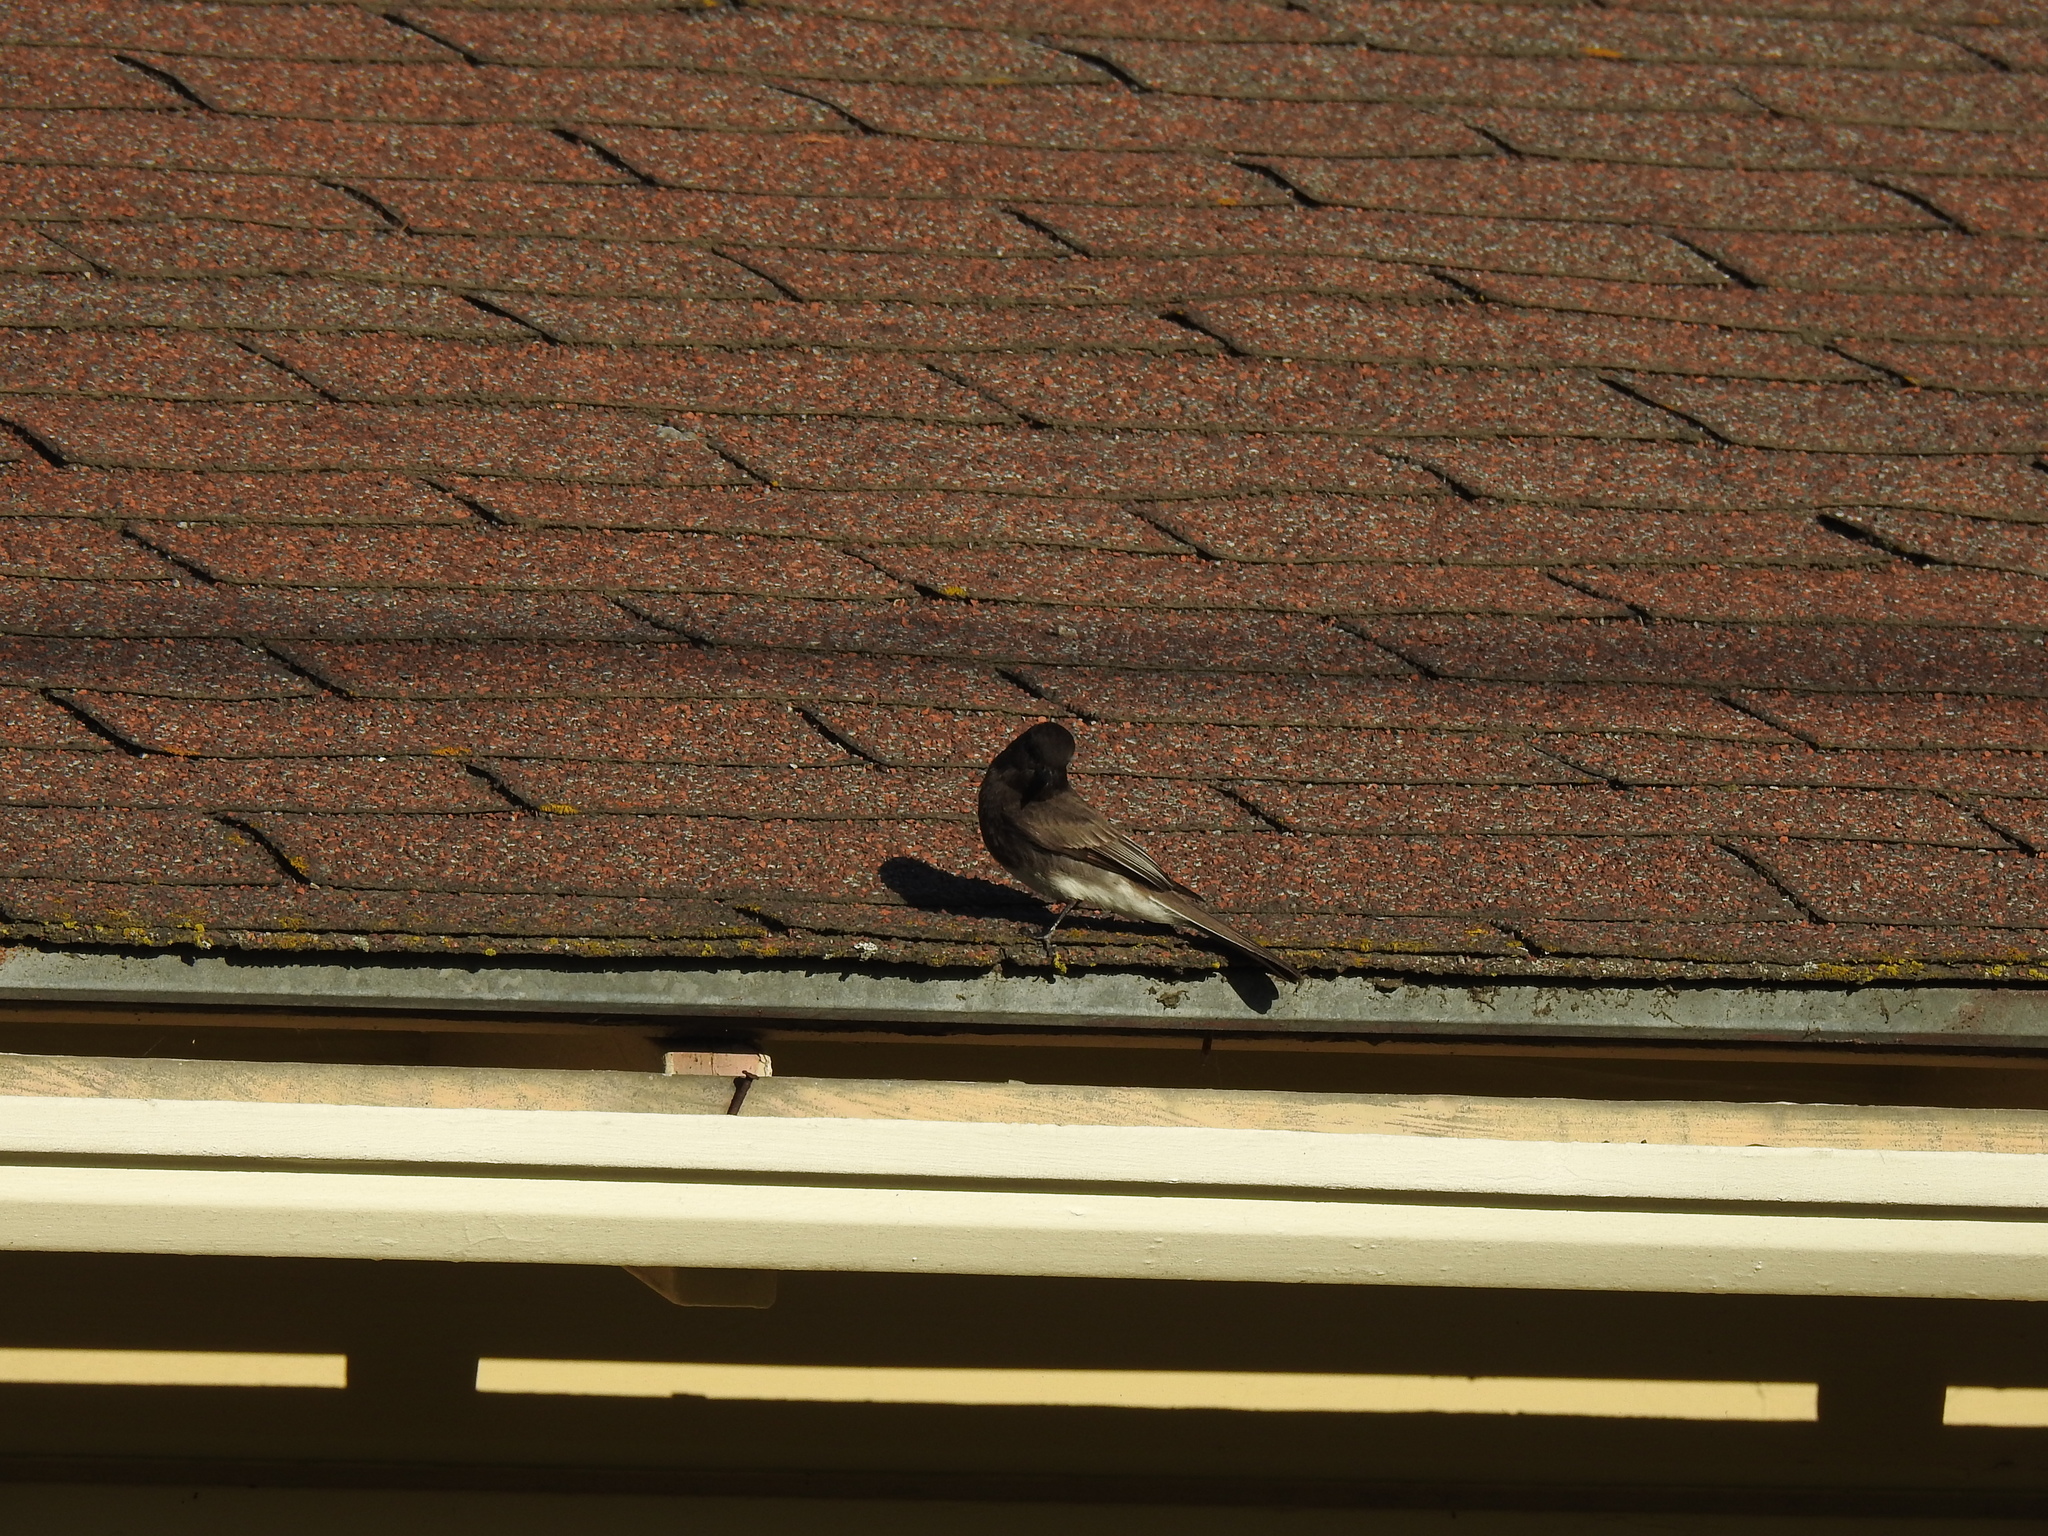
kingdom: Animalia
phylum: Chordata
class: Aves
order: Passeriformes
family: Tyrannidae
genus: Sayornis
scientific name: Sayornis nigricans
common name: Black phoebe
